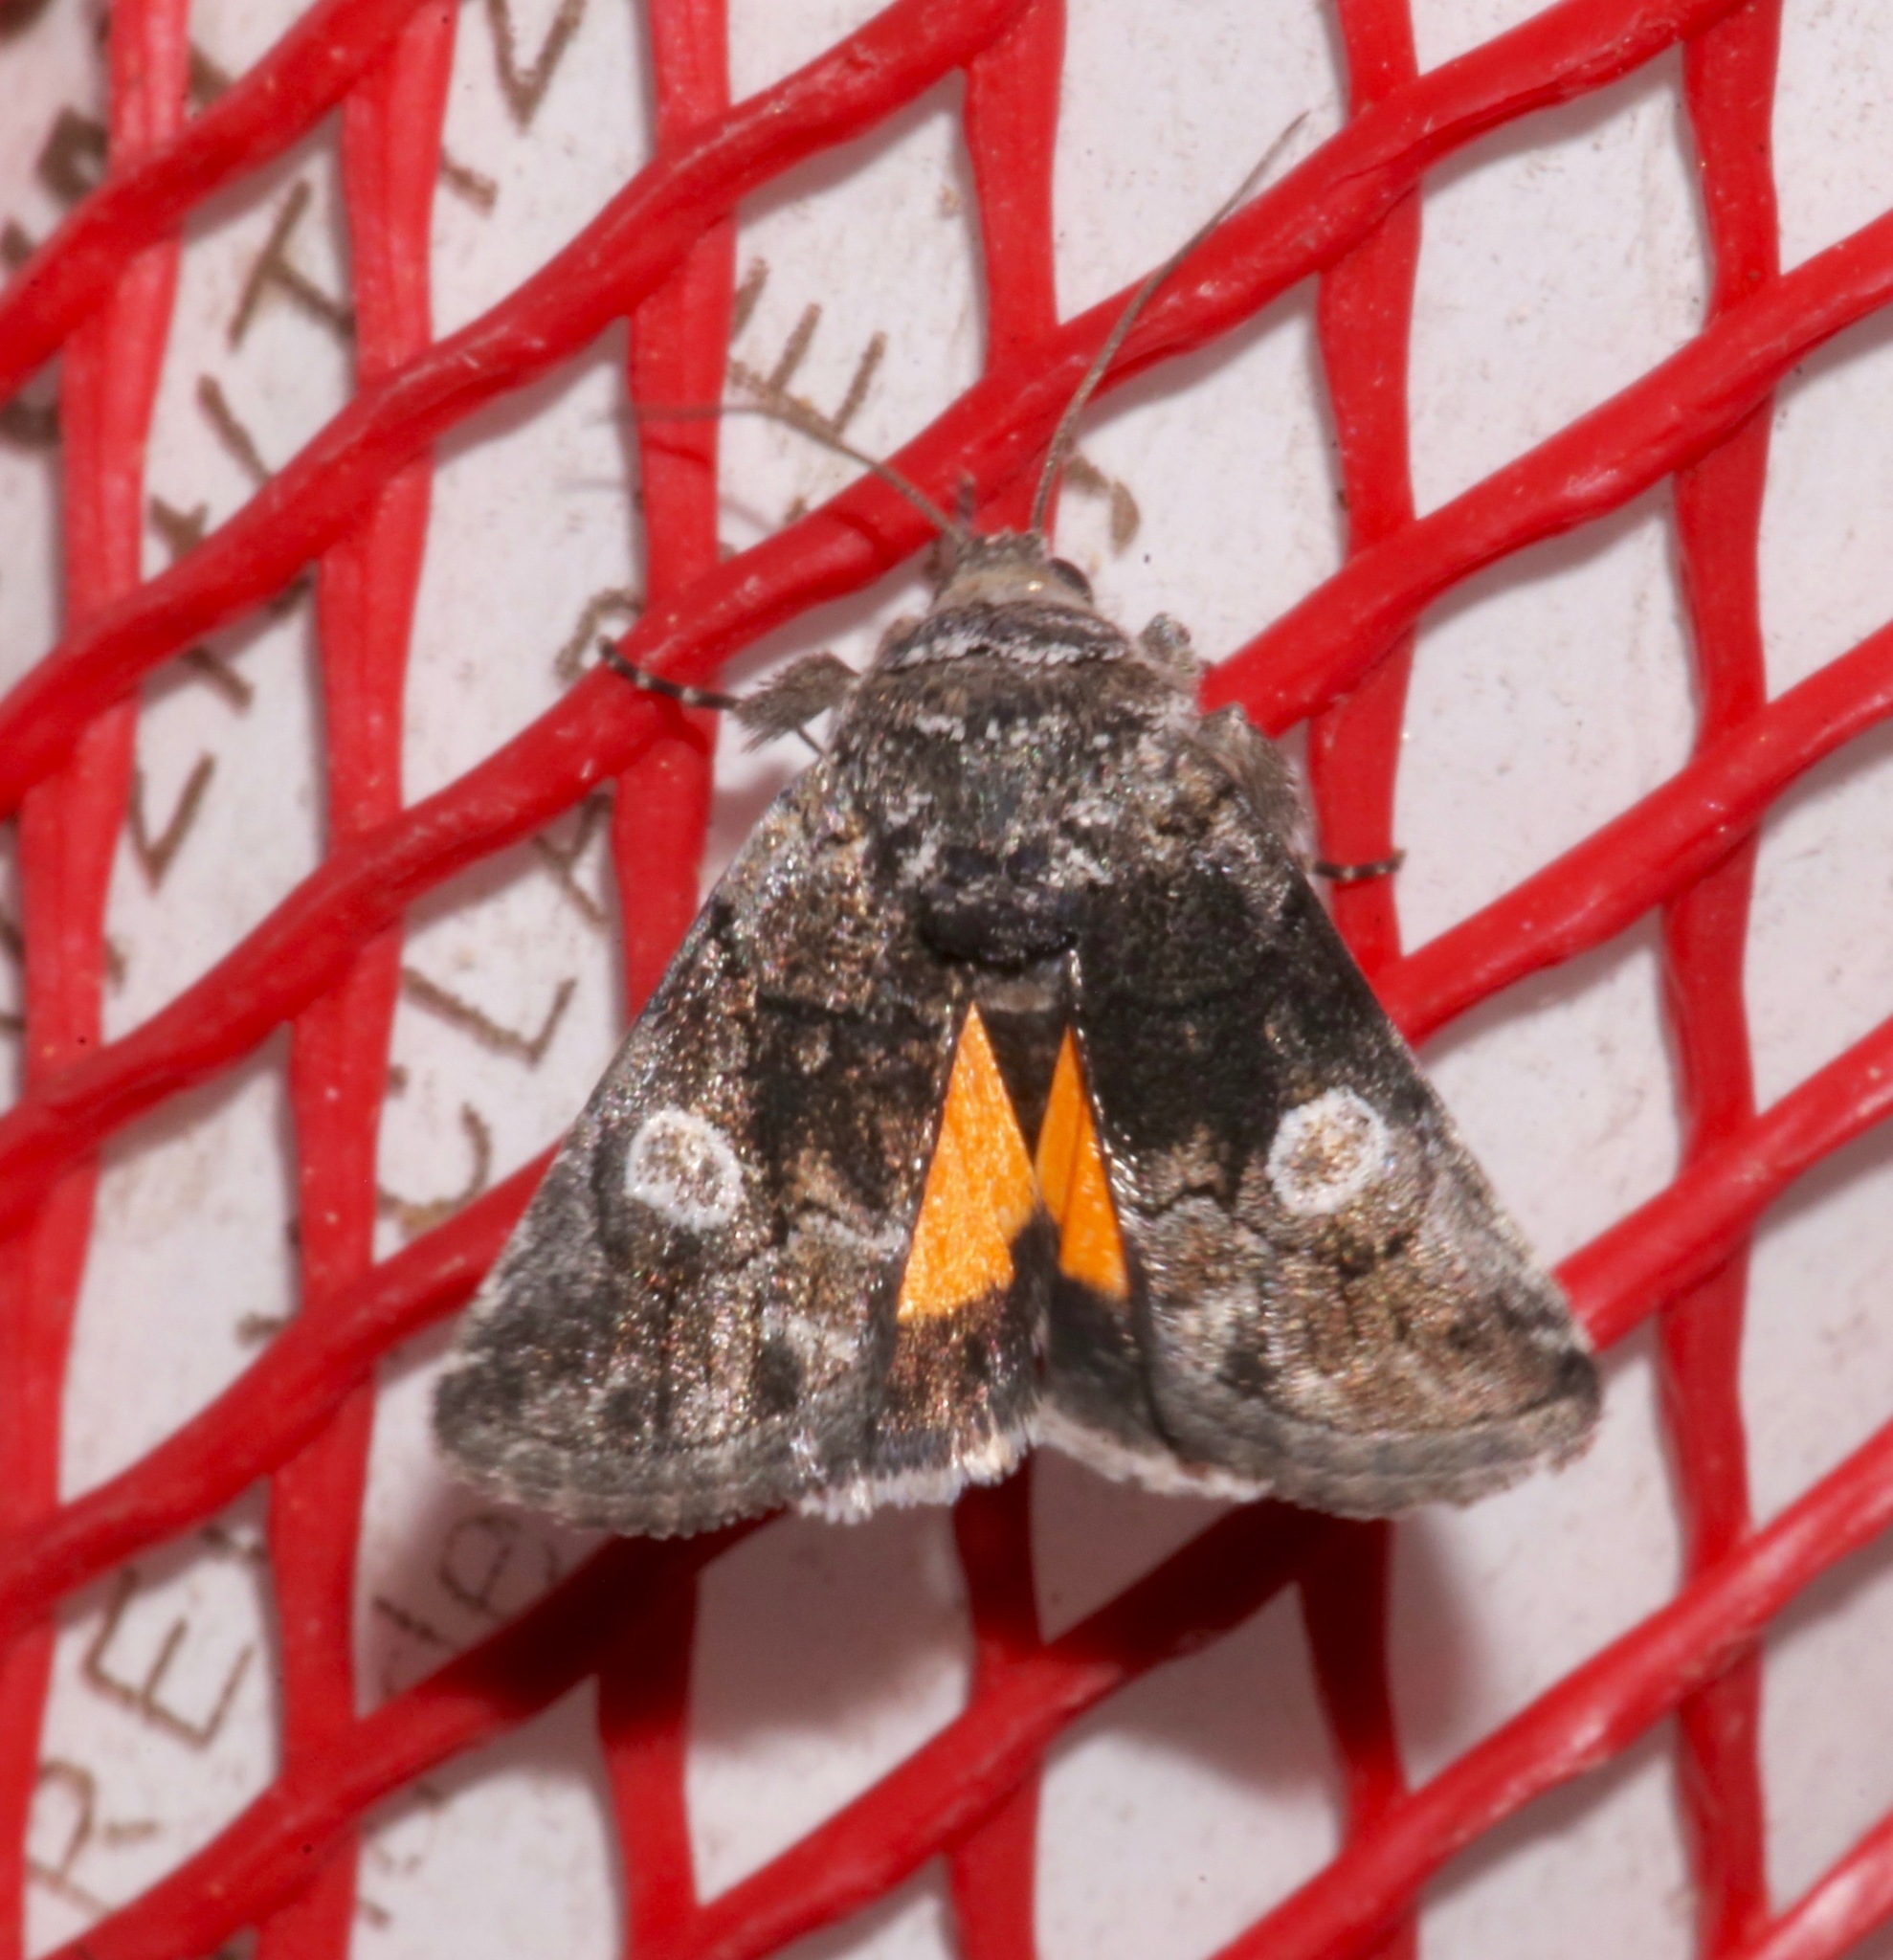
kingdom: Animalia
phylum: Arthropoda
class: Insecta
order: Lepidoptera
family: Noctuidae
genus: Copanarta
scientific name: Copanarta aurea
